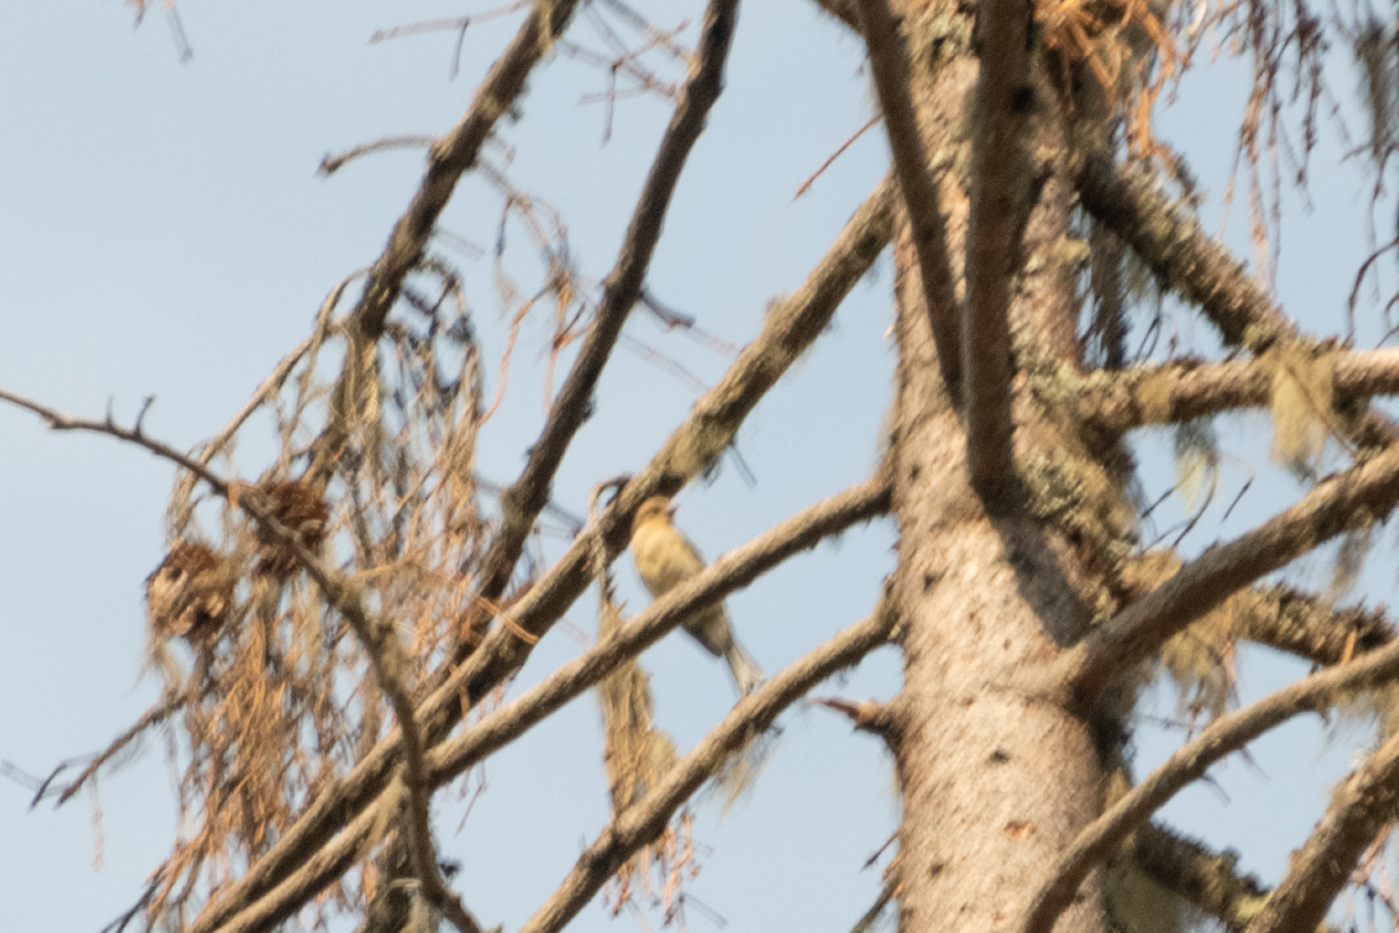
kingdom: Animalia
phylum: Chordata
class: Aves
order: Passeriformes
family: Fringillidae
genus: Fringilla
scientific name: Fringilla coelebs
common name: Common chaffinch
